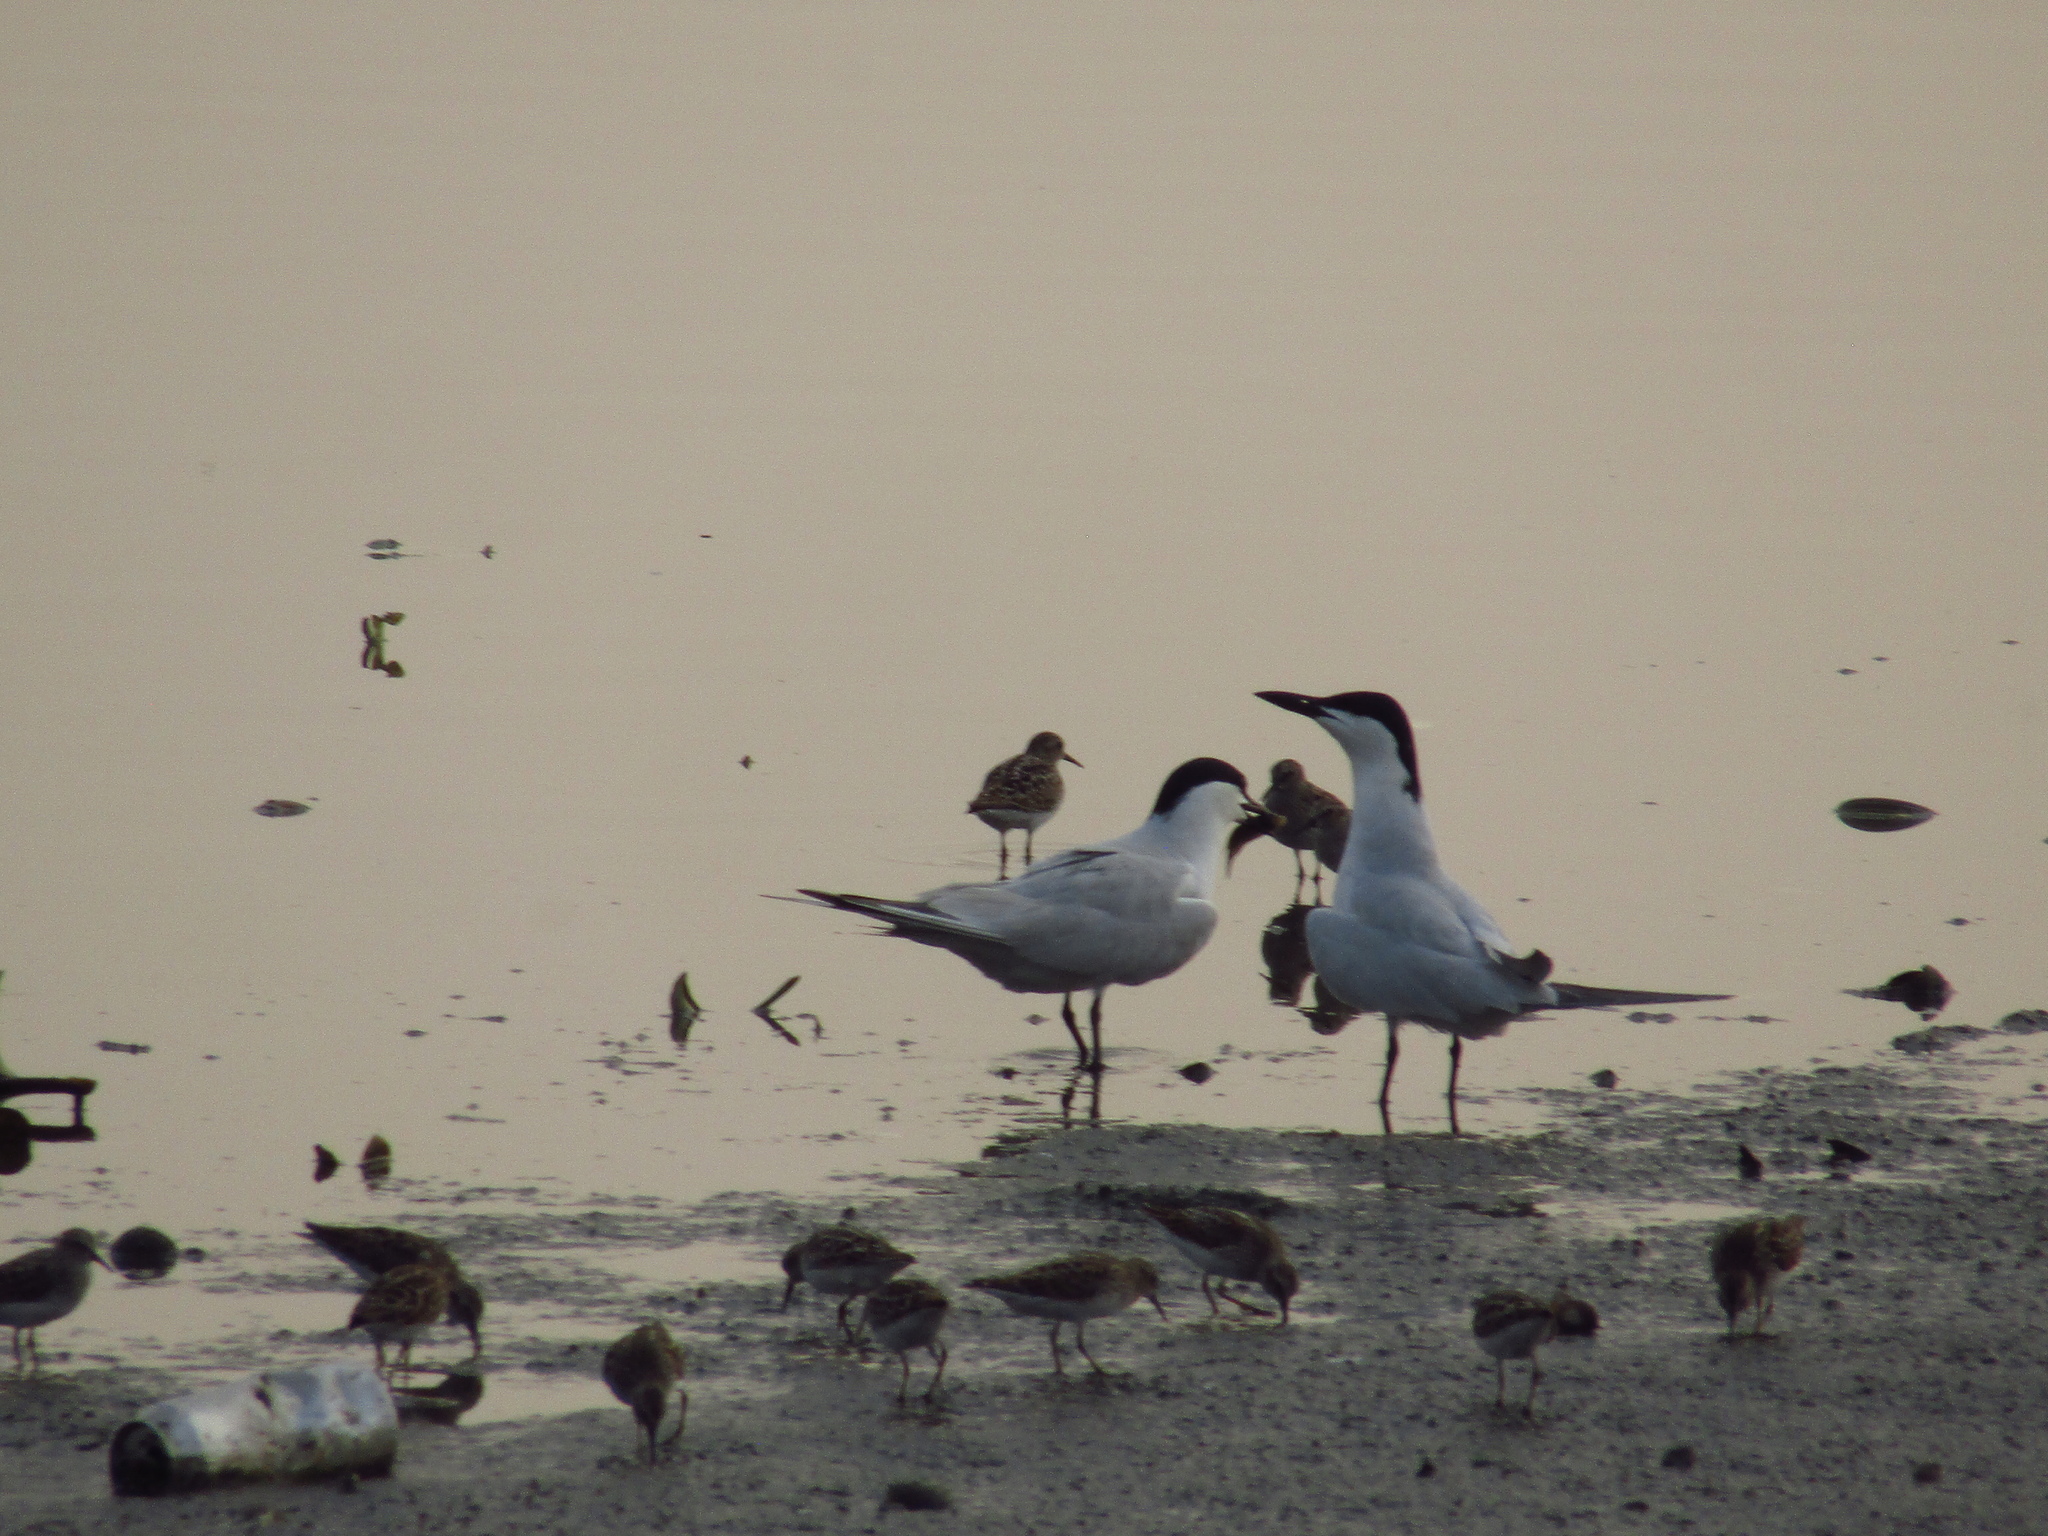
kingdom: Animalia
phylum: Chordata
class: Aves
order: Charadriiformes
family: Laridae
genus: Gelochelidon
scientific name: Gelochelidon nilotica
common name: Gull-billed tern
